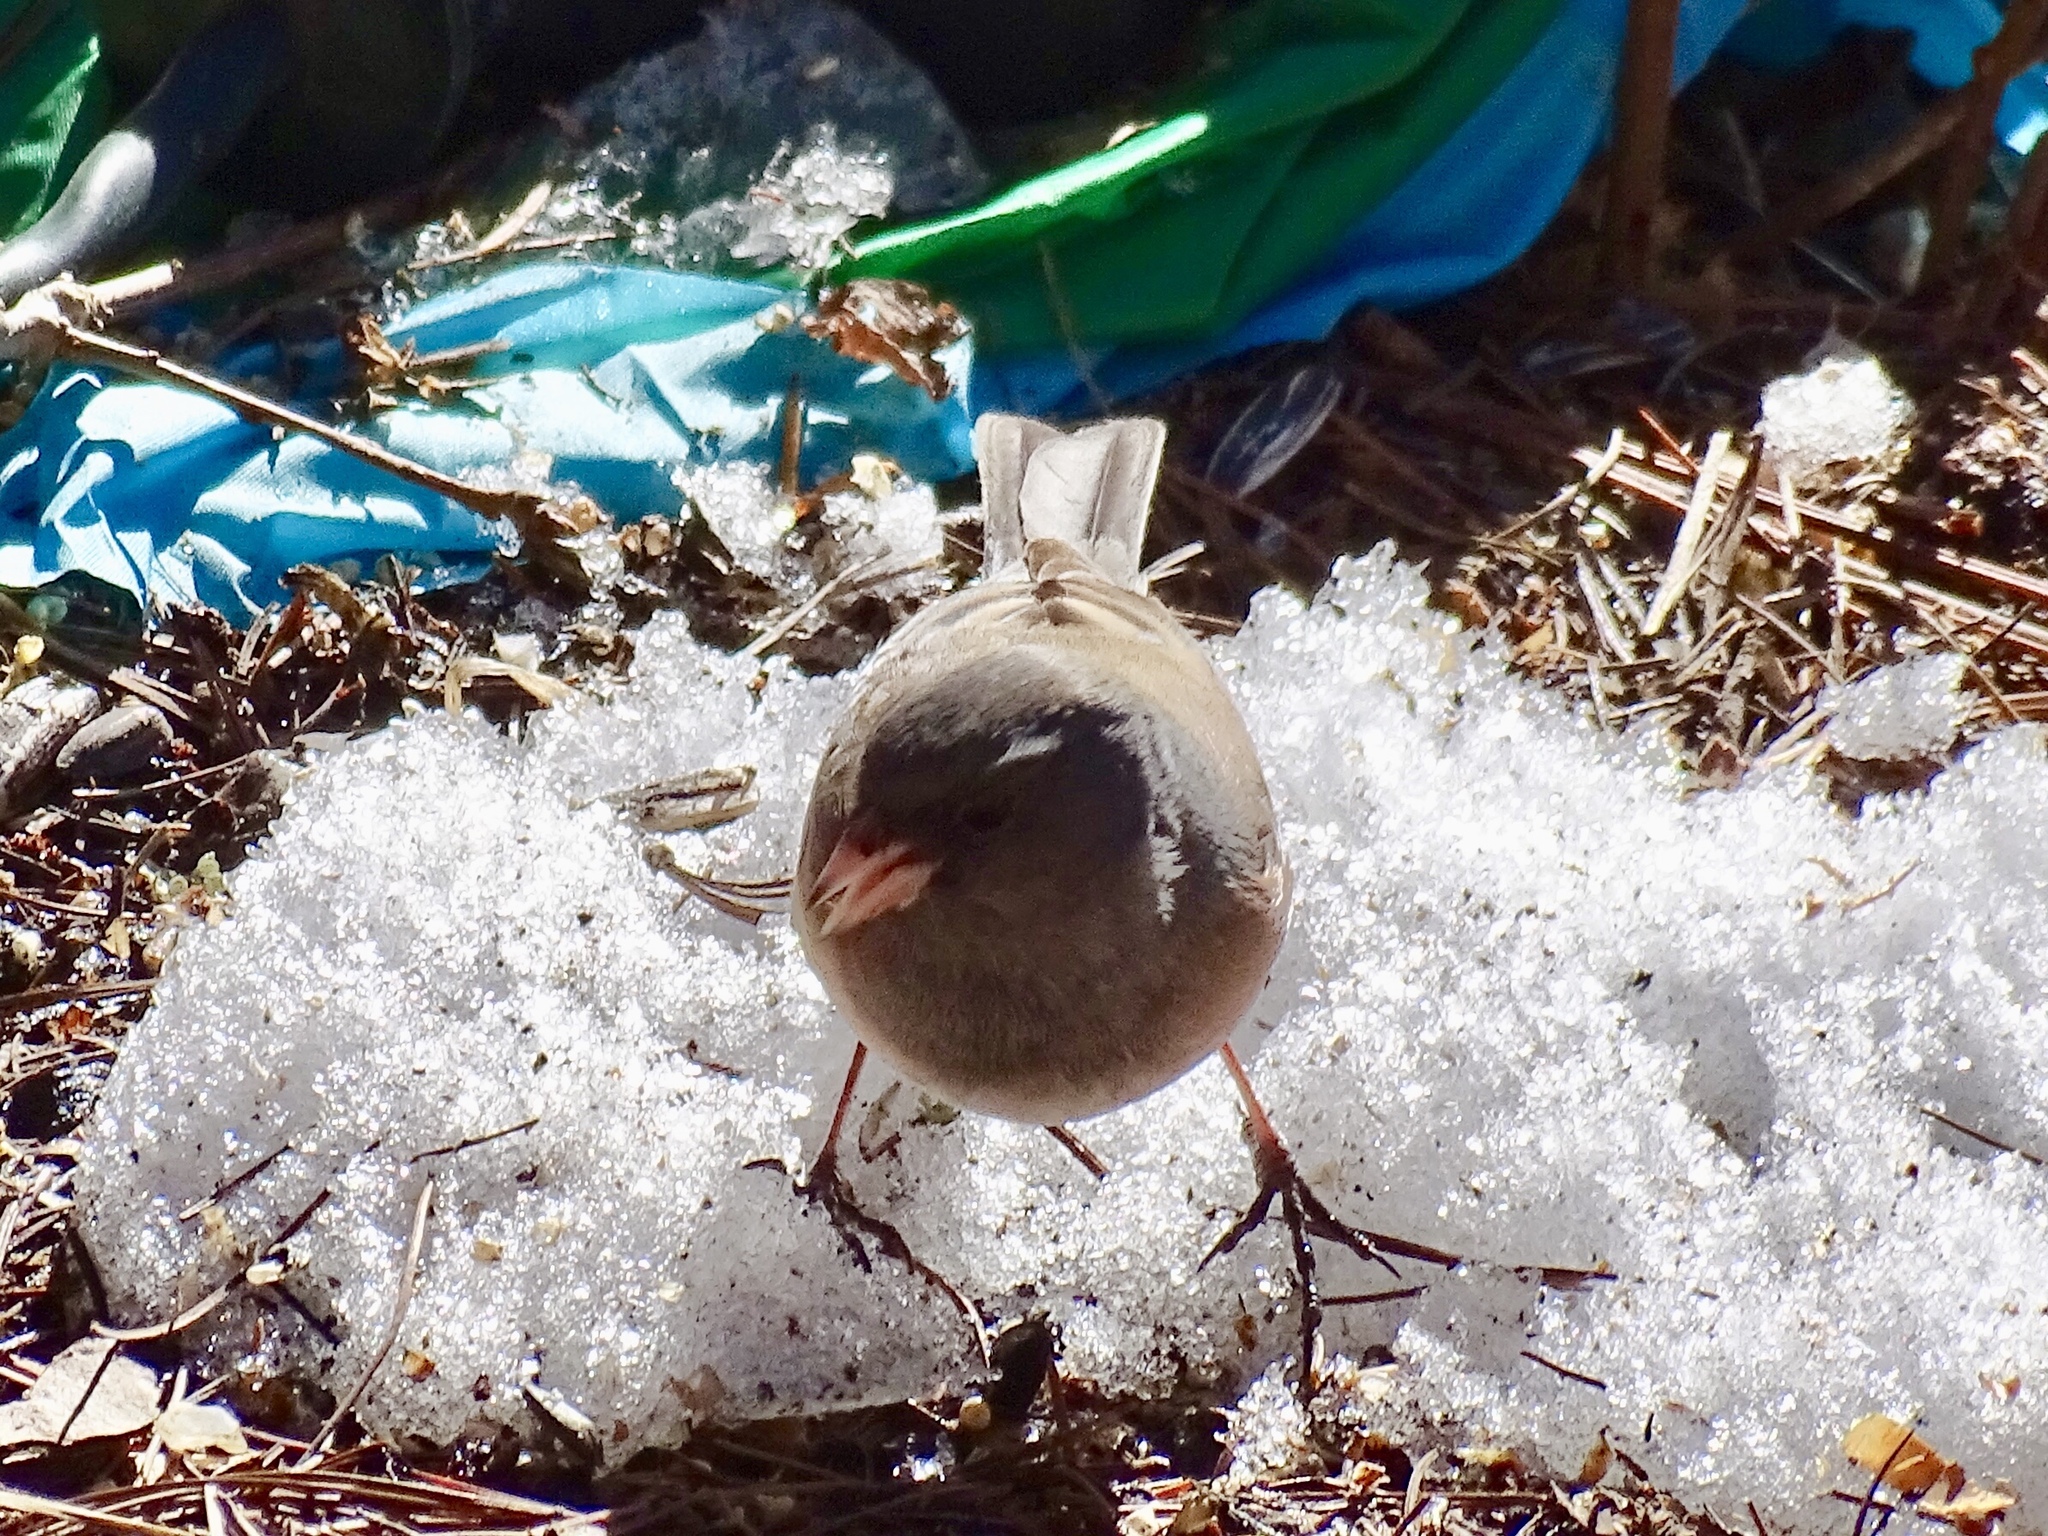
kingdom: Animalia
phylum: Chordata
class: Aves
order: Passeriformes
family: Passerellidae
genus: Junco
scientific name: Junco hyemalis
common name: Dark-eyed junco
